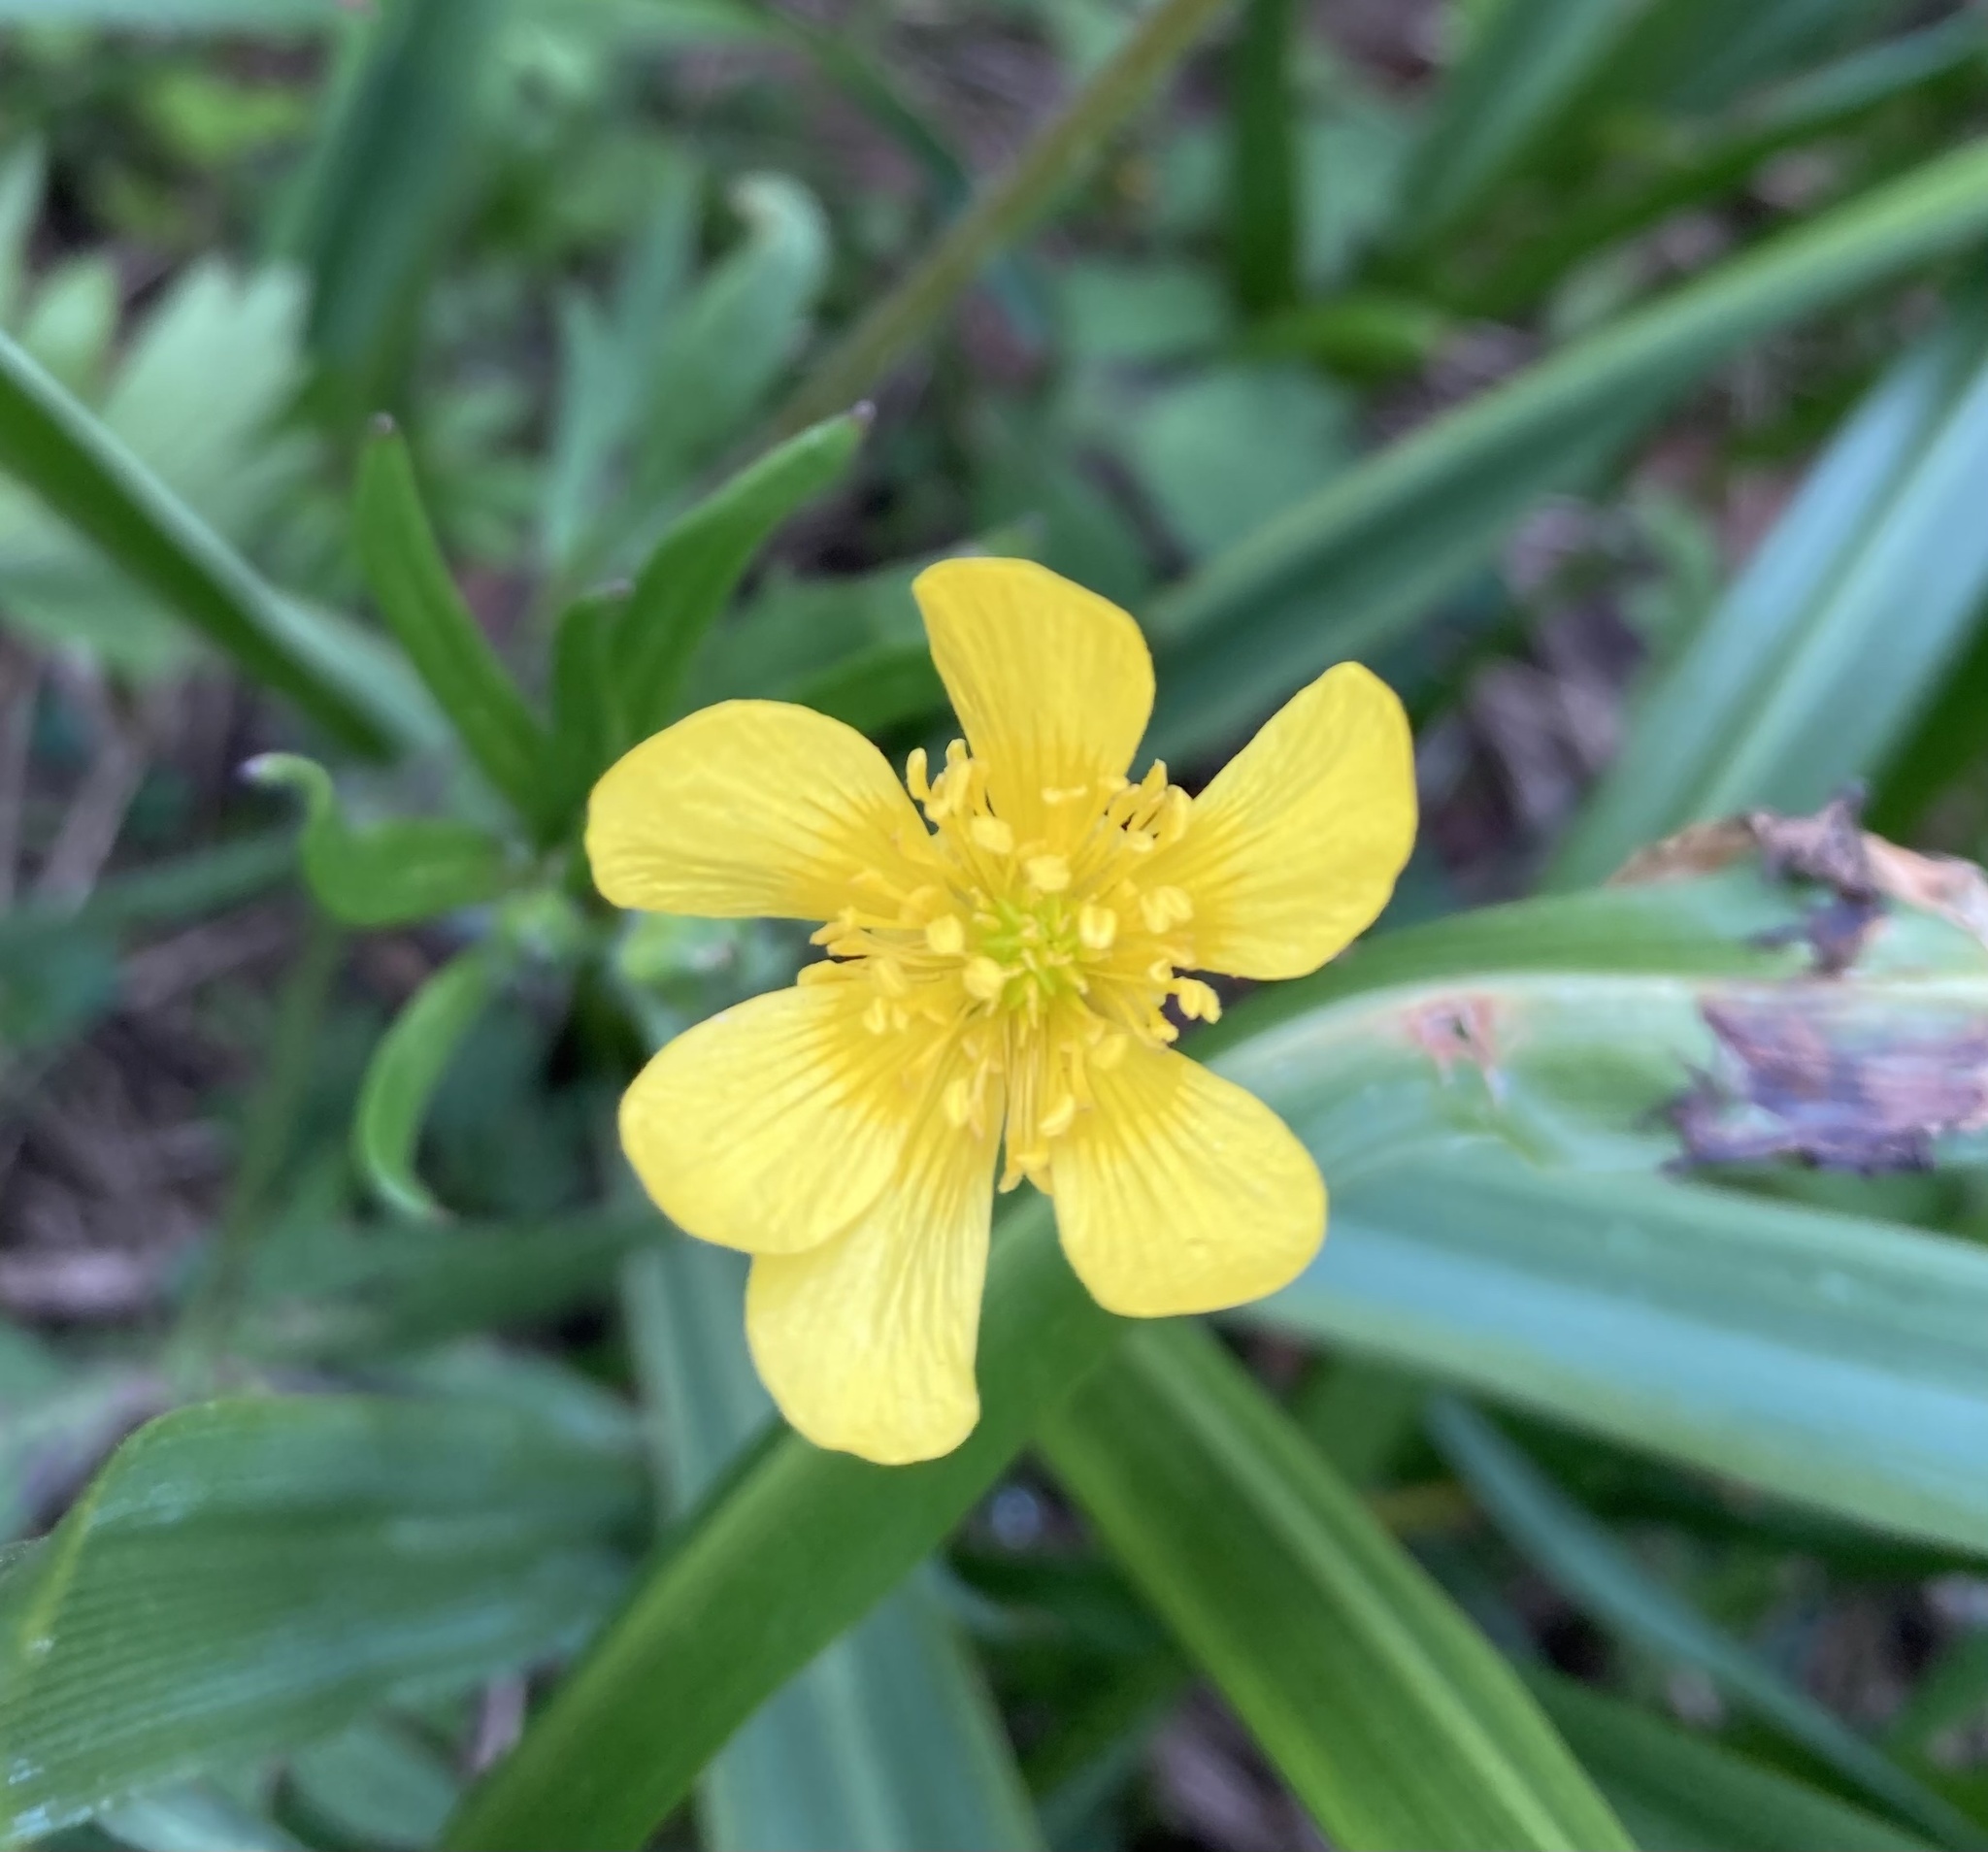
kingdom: Plantae
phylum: Tracheophyta
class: Magnoliopsida
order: Ranunculales
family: Ranunculaceae
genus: Ranunculus
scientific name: Ranunculus occidentalis
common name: Western buttercup
